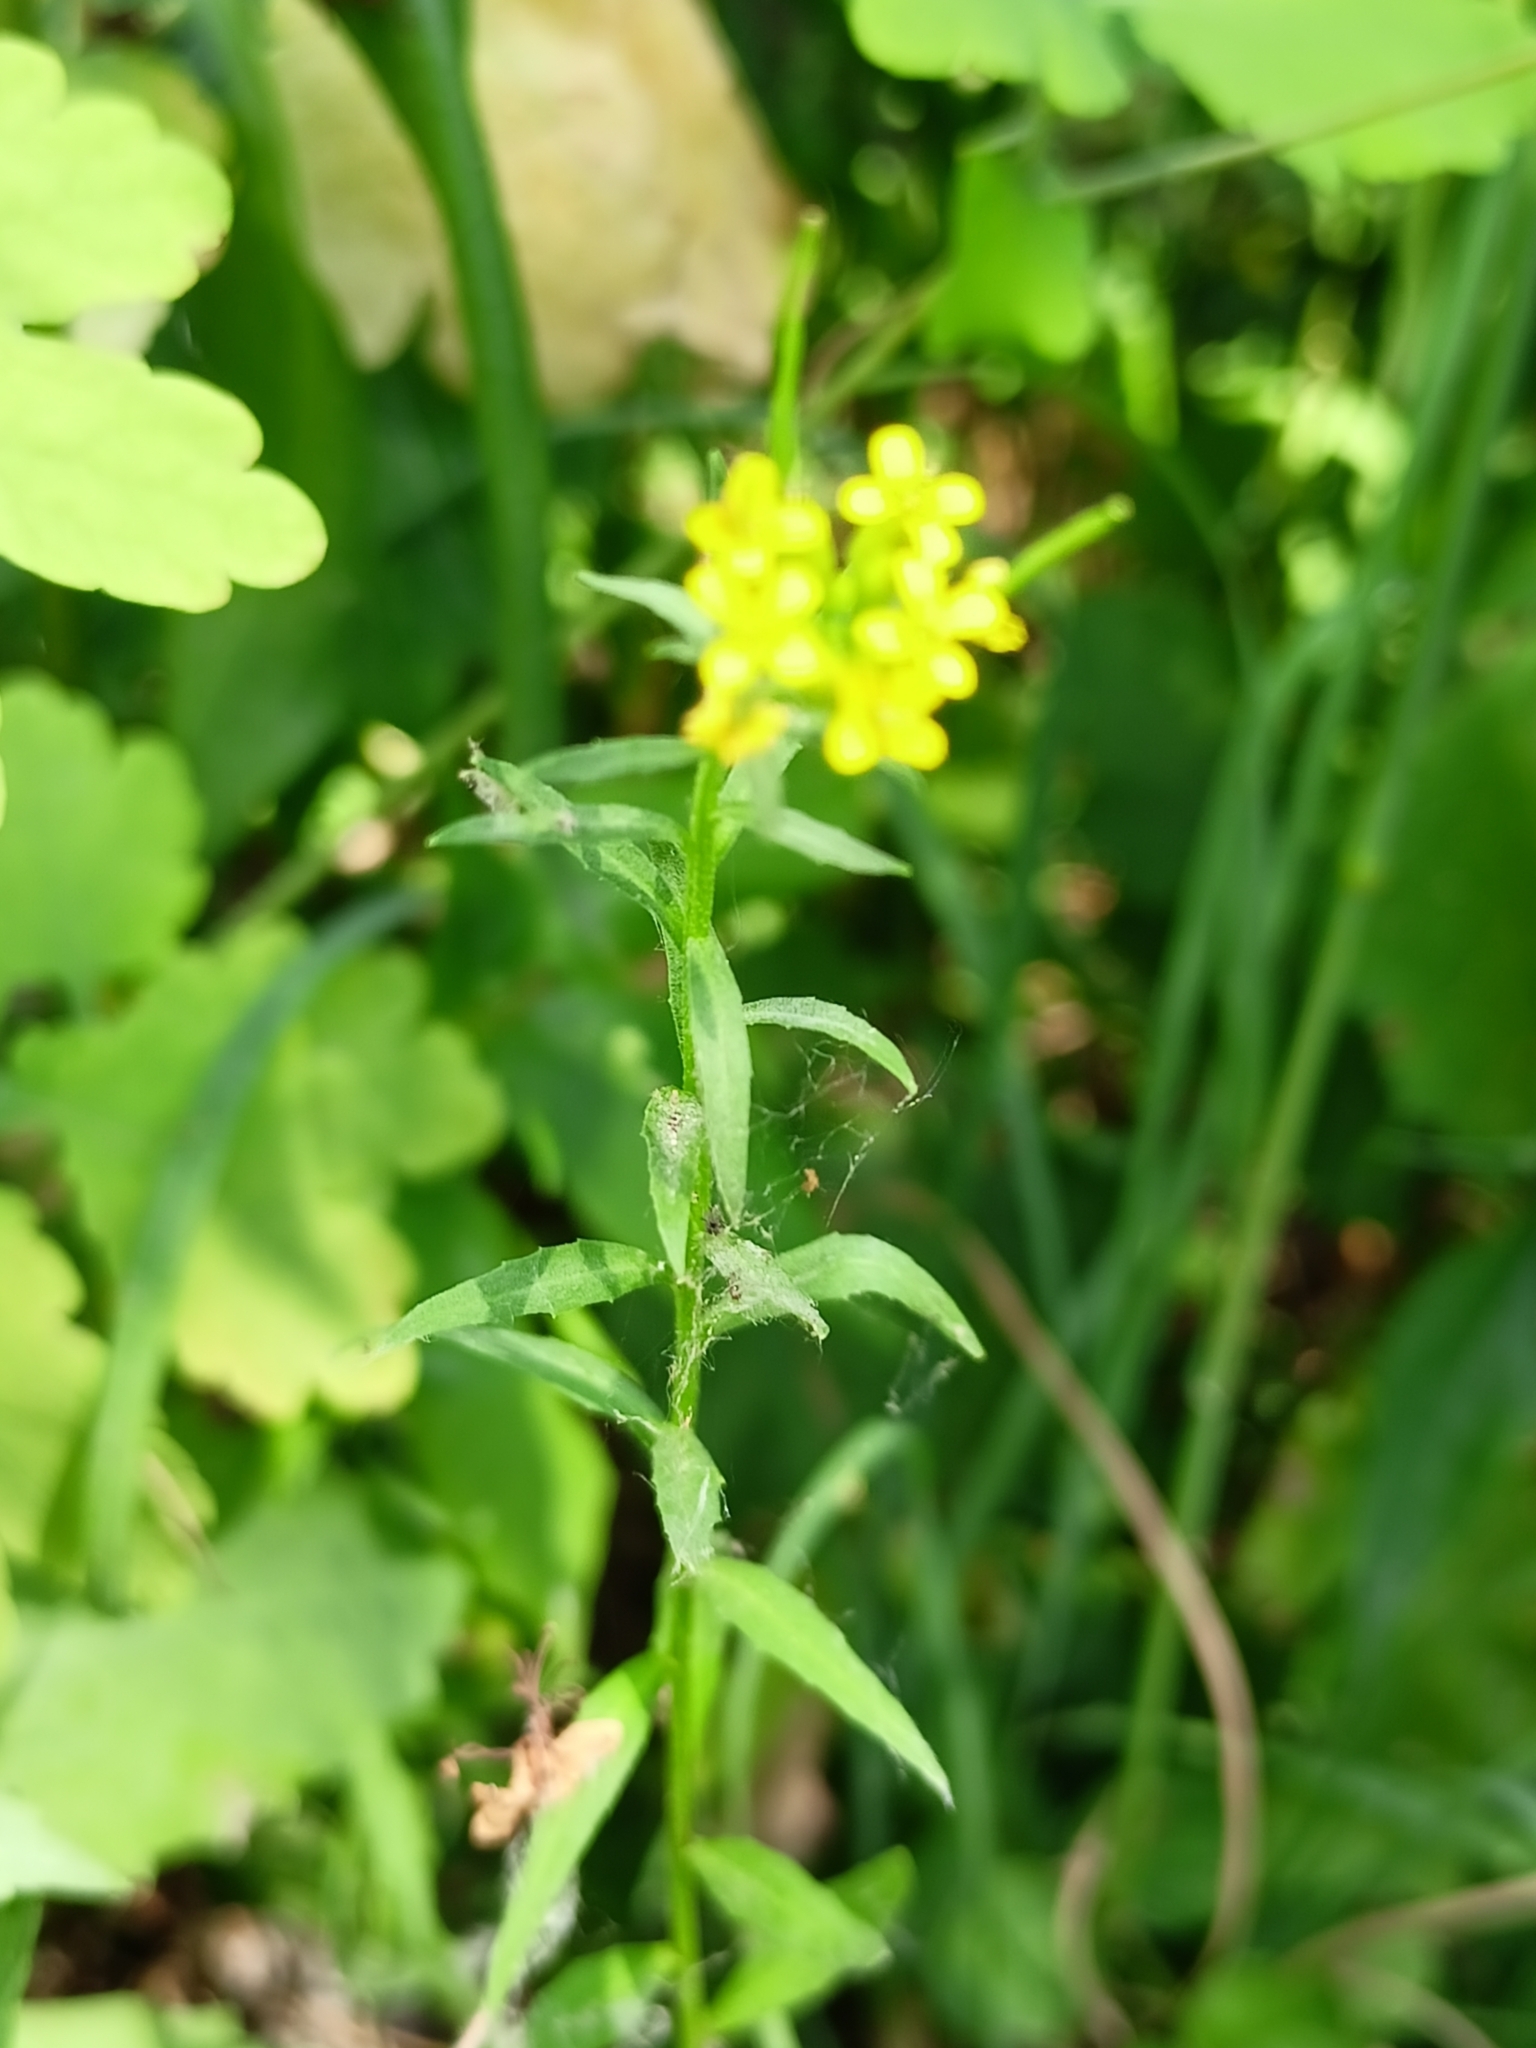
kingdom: Plantae
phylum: Tracheophyta
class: Magnoliopsida
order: Brassicales
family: Brassicaceae
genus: Erysimum
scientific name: Erysimum cheiranthoides
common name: Treacle mustard
